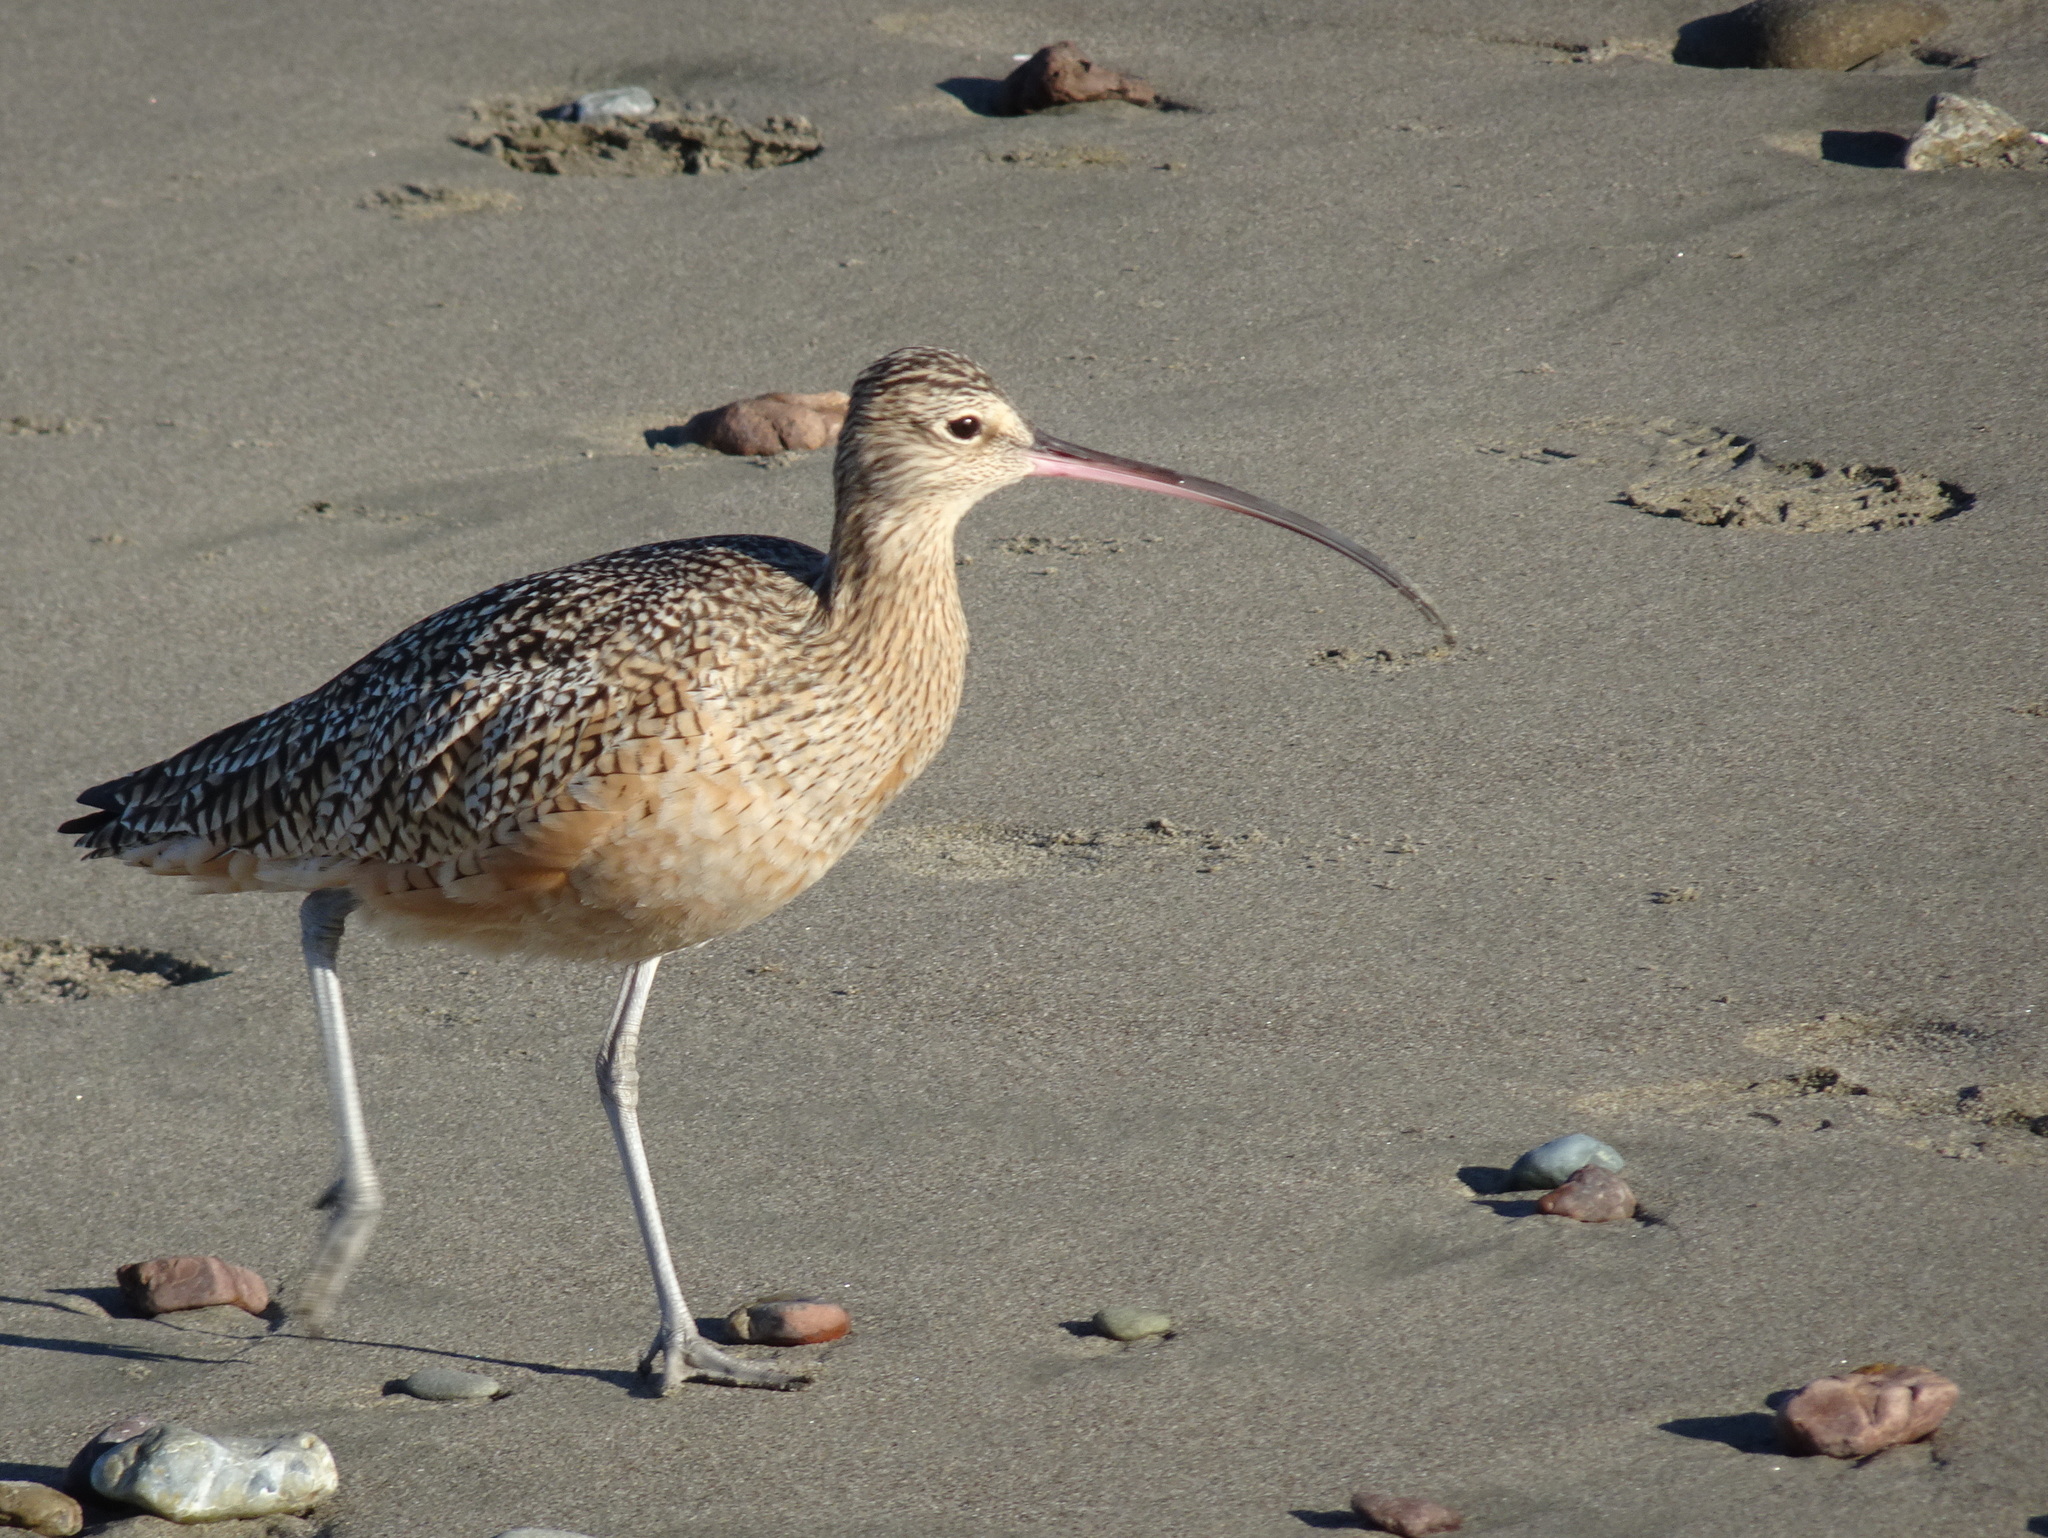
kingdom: Animalia
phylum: Chordata
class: Aves
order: Charadriiformes
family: Scolopacidae
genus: Numenius
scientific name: Numenius americanus
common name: Long-billed curlew
